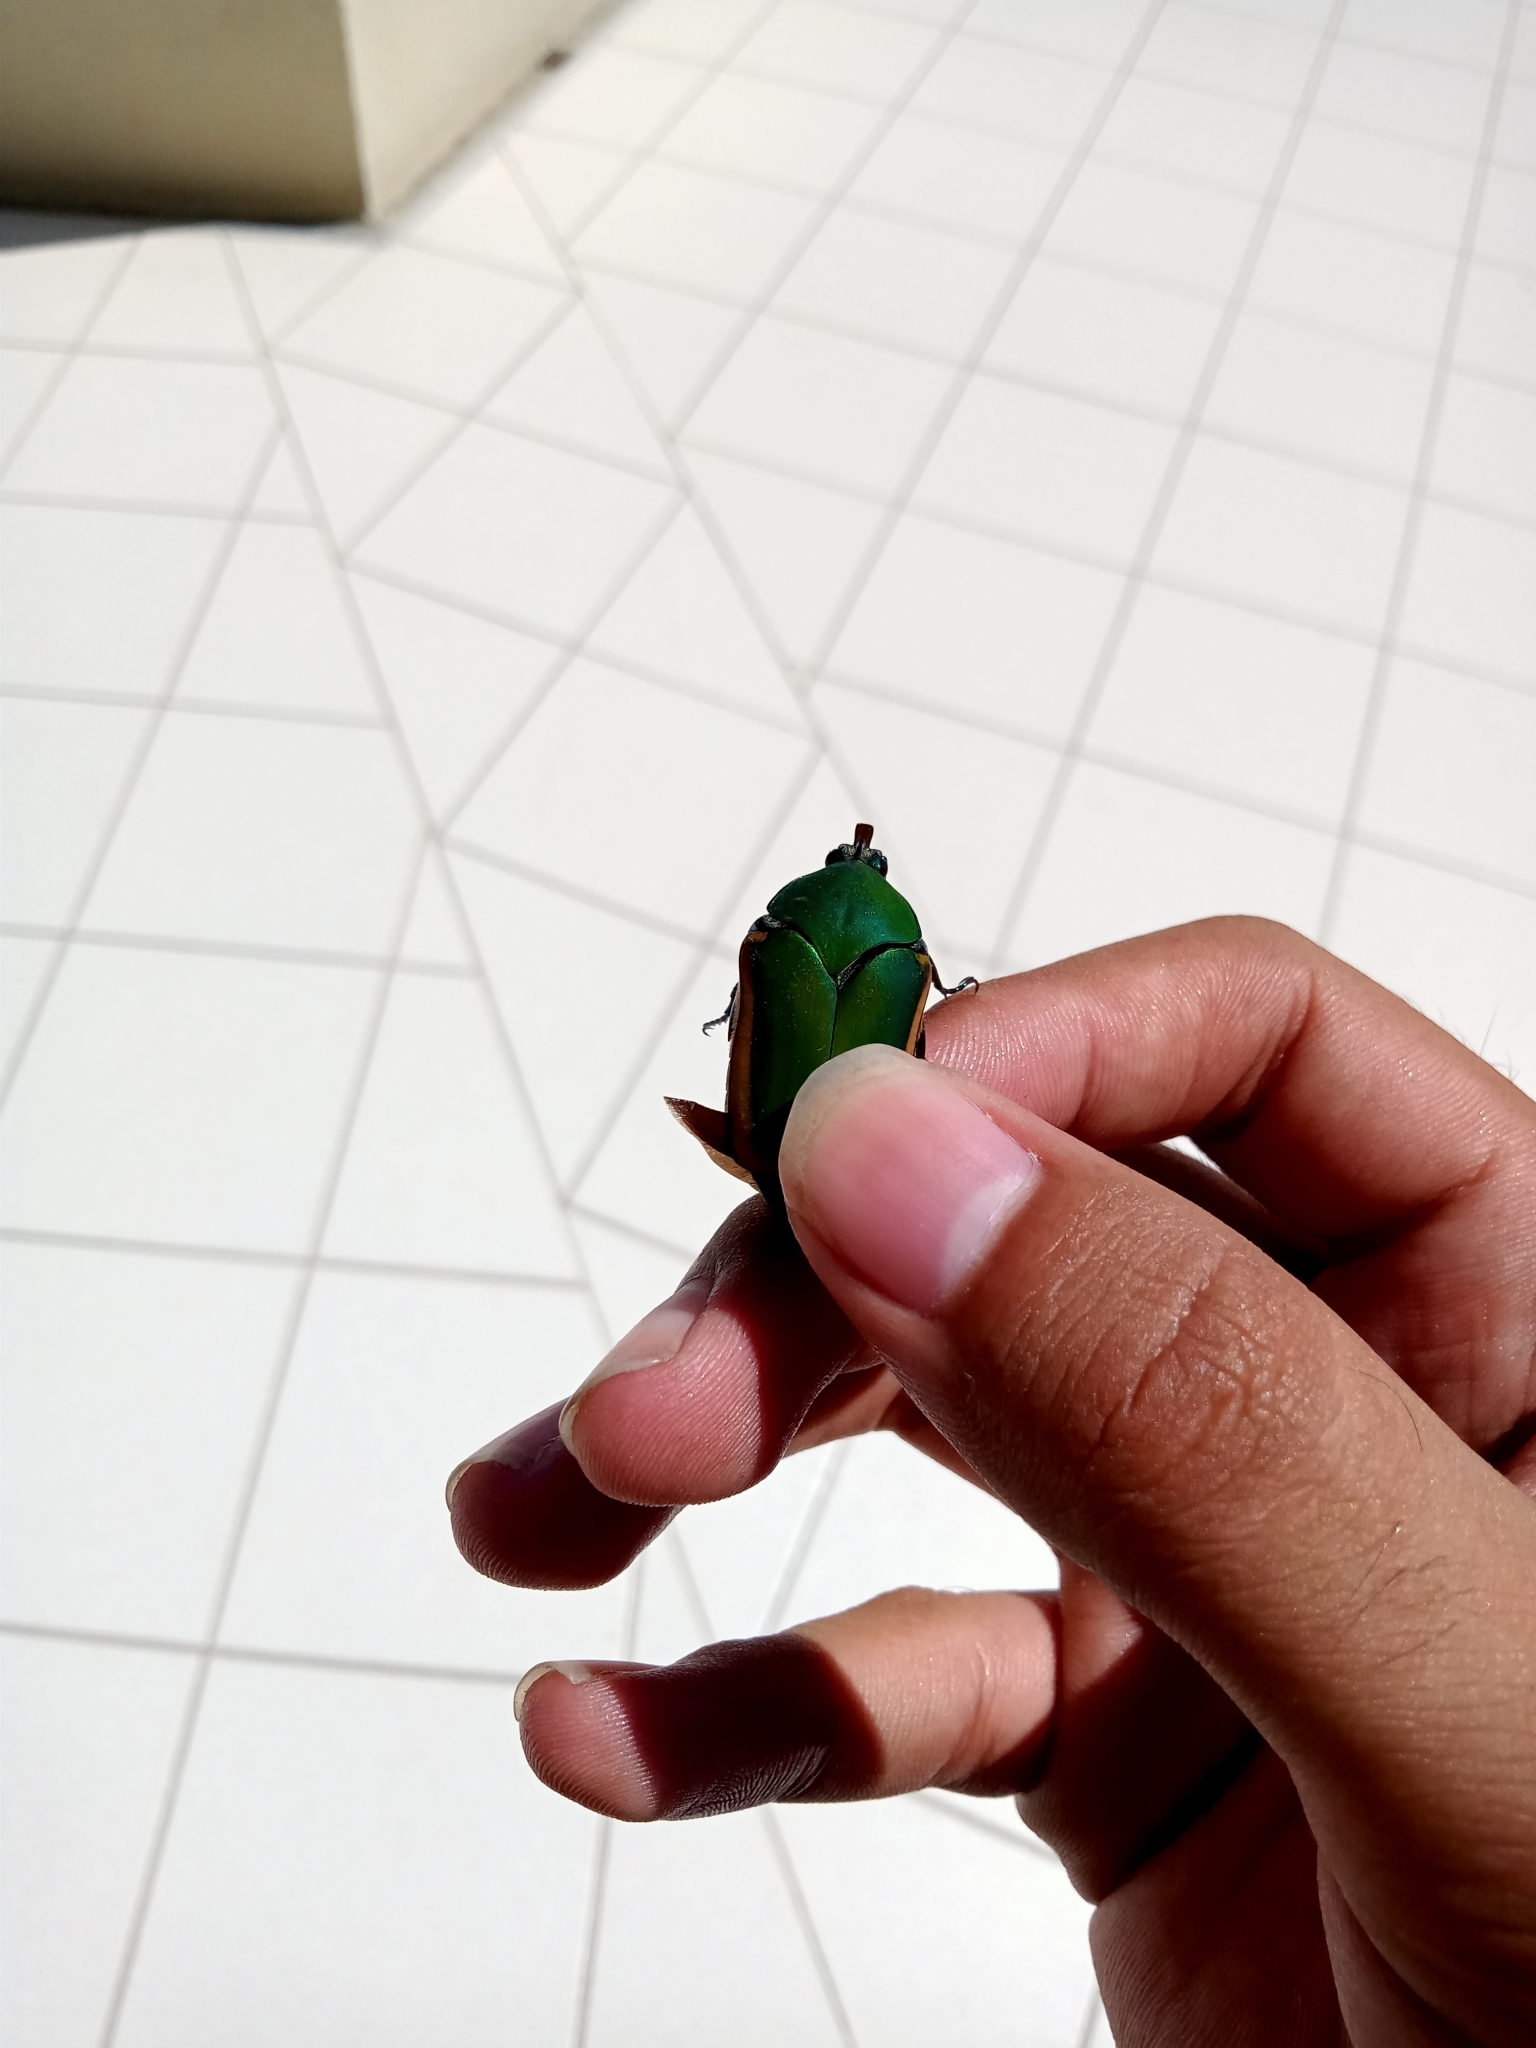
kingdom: Animalia
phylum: Arthropoda
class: Insecta
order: Coleoptera
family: Scarabaeidae
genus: Cotinis
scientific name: Cotinis mutabilis
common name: Figeater beetle
